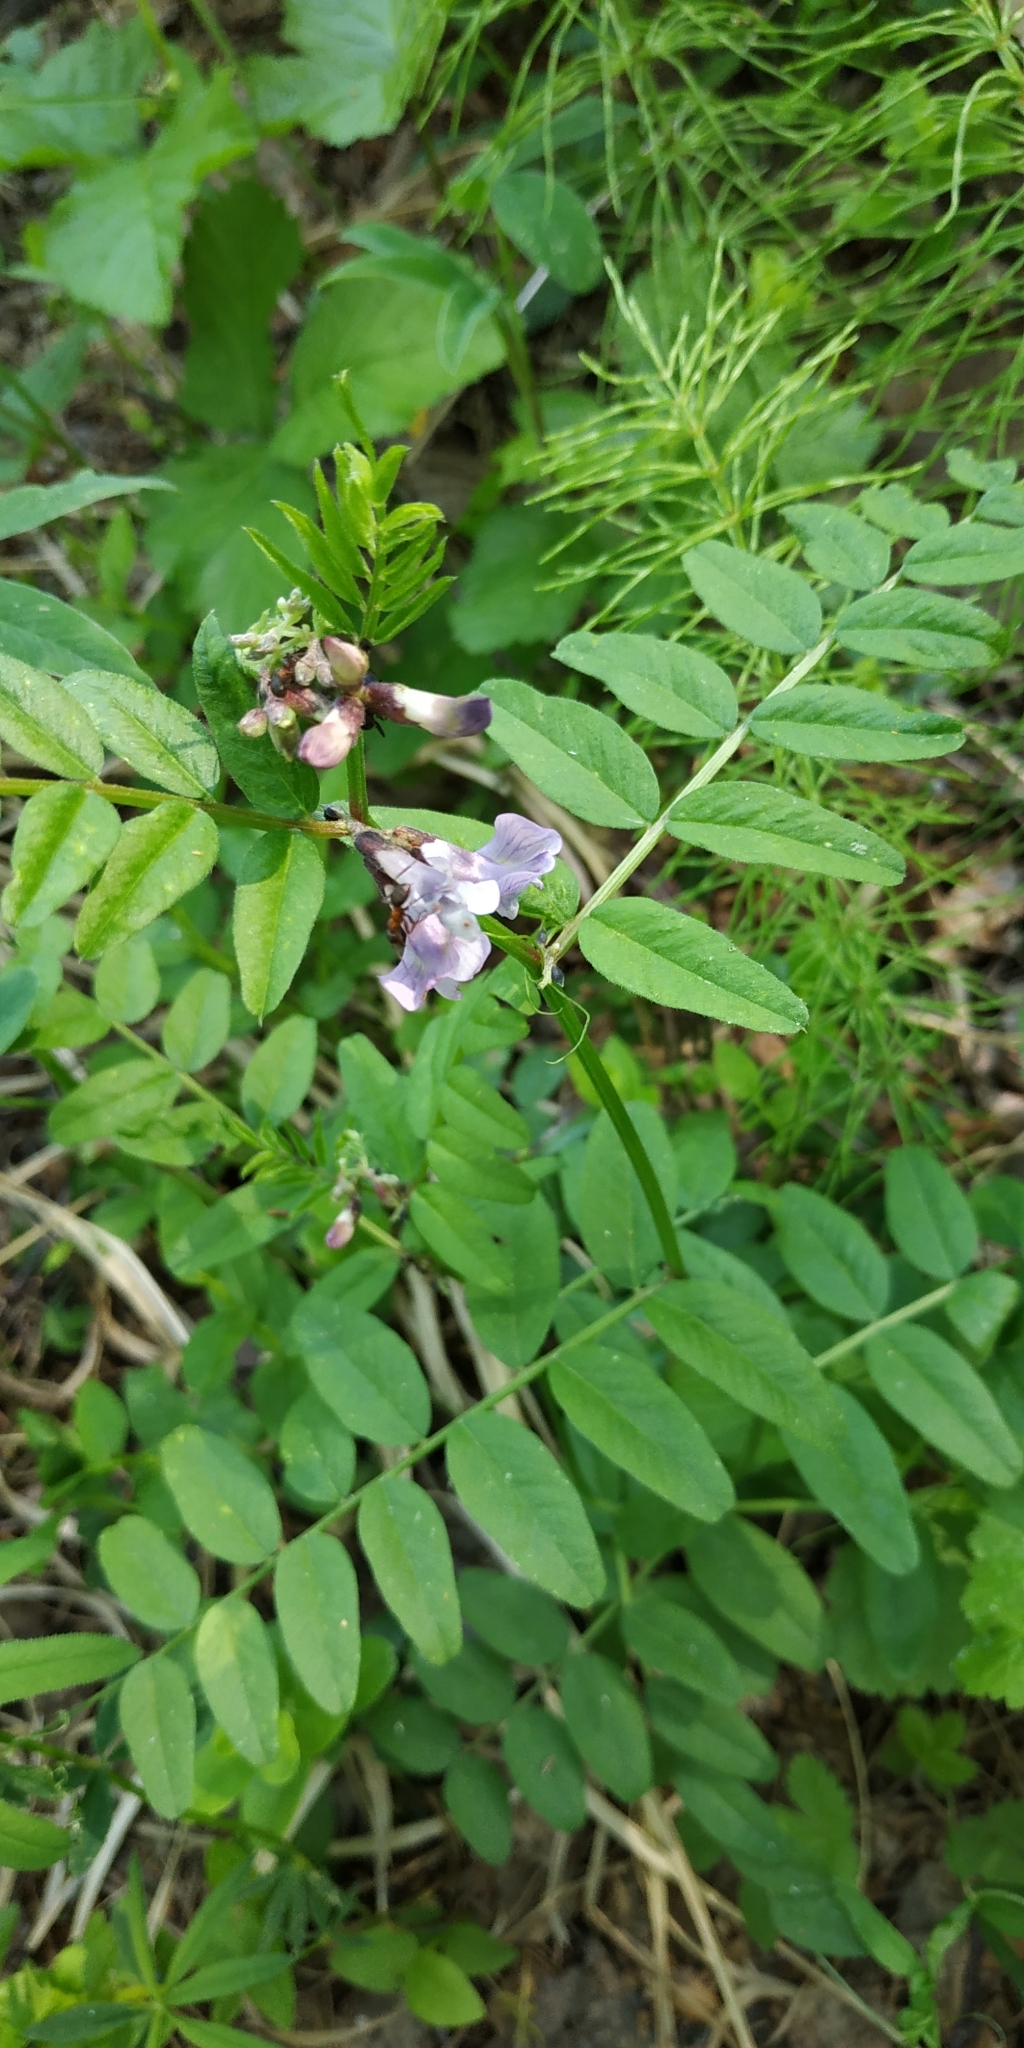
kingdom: Plantae
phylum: Tracheophyta
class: Magnoliopsida
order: Fabales
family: Fabaceae
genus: Vicia
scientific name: Vicia sepium
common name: Bush vetch
